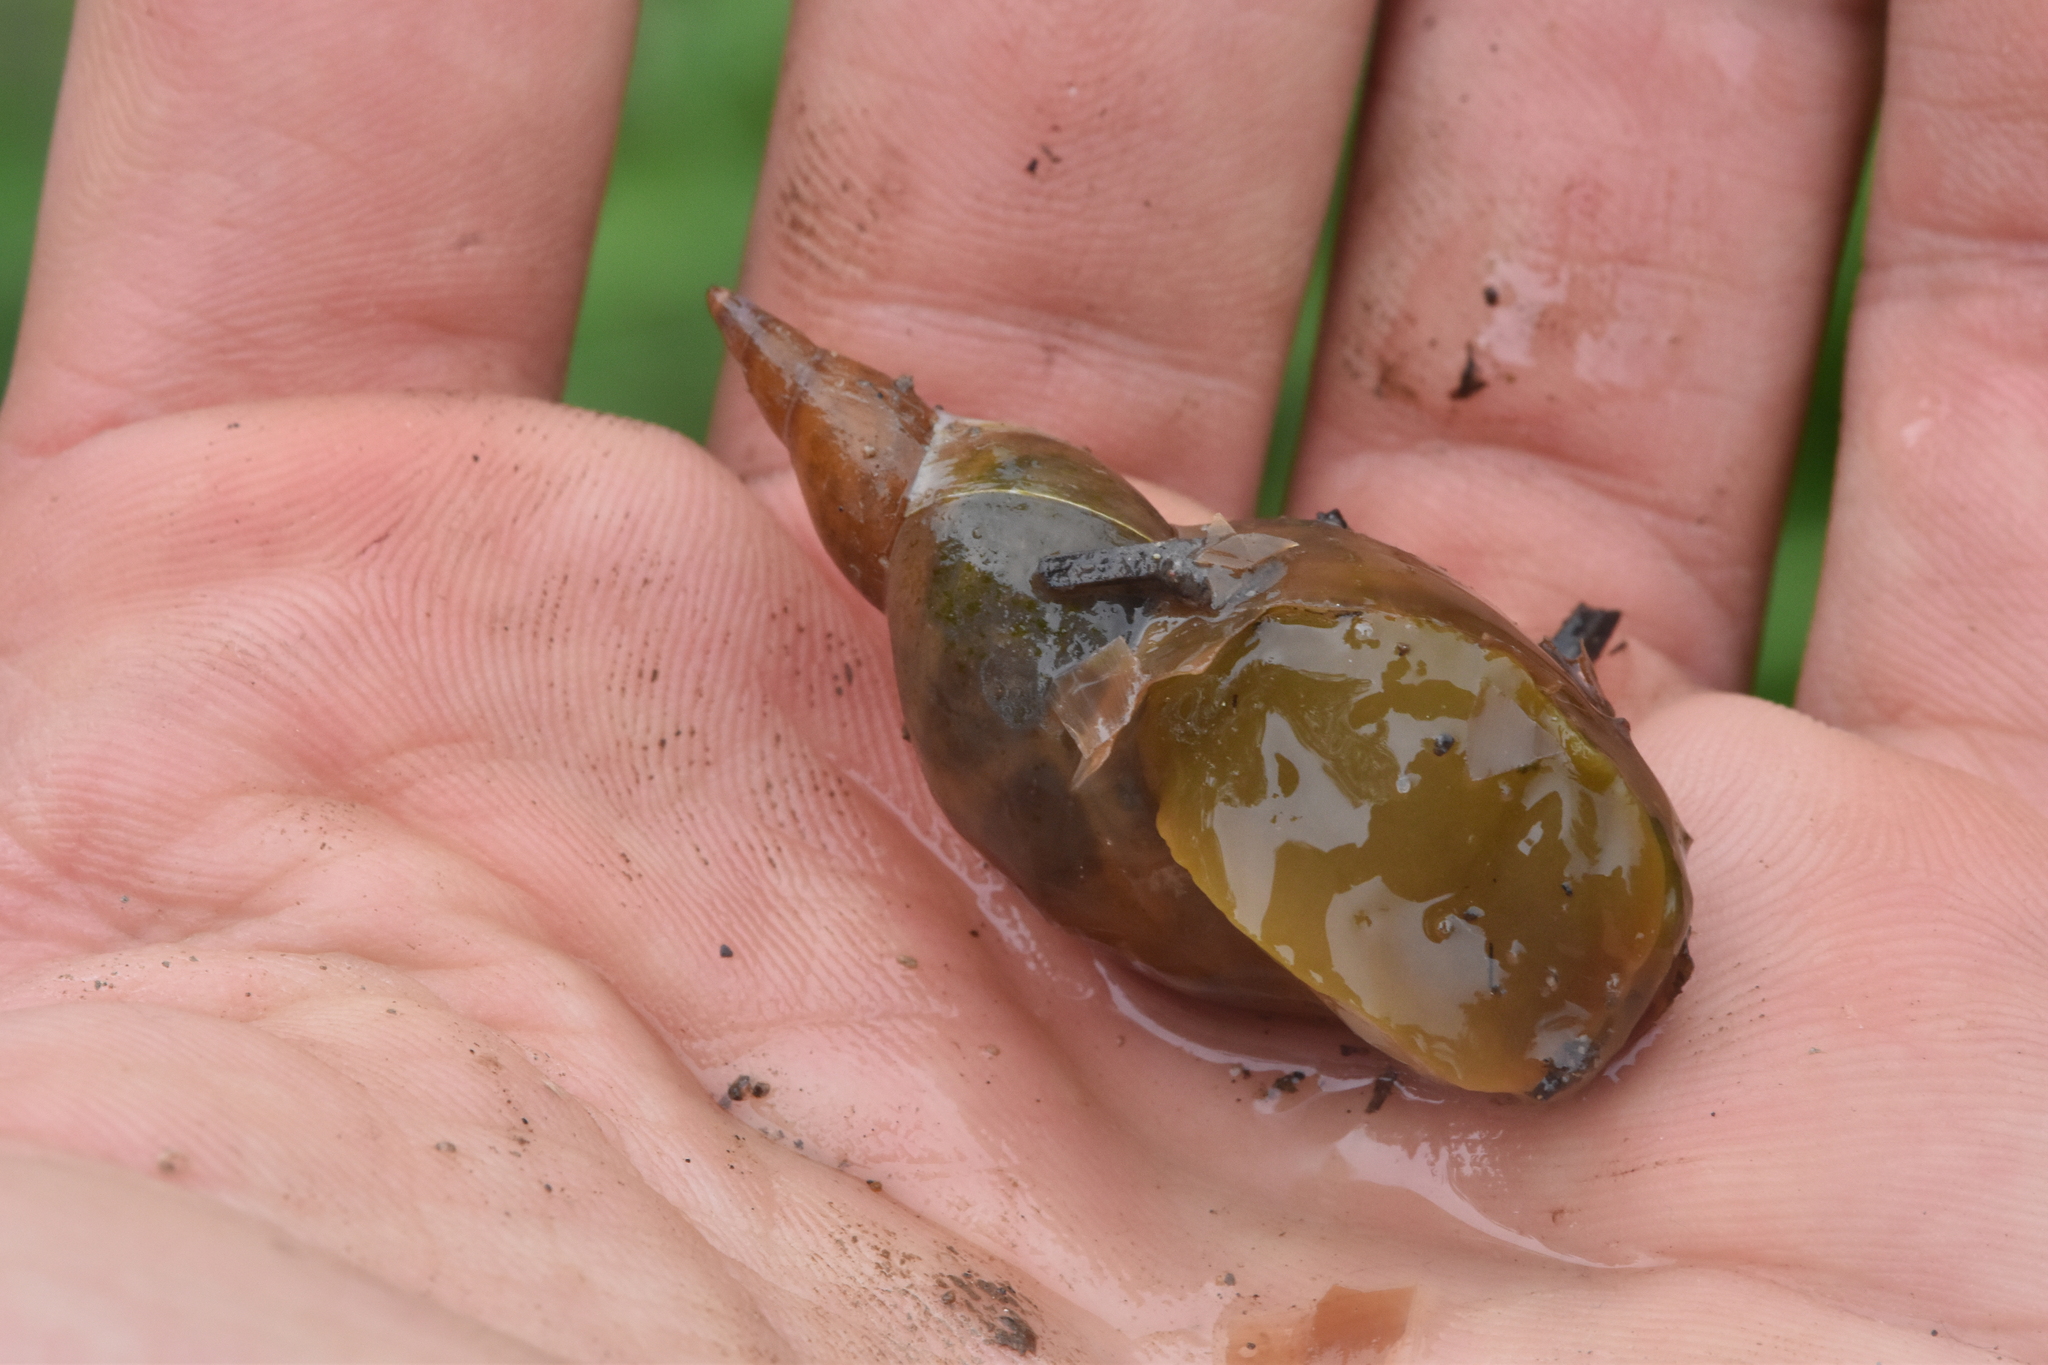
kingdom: Animalia
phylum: Mollusca
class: Gastropoda
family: Lymnaeidae
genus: Lymnaea
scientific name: Lymnaea stagnalis
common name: Great pond snail
